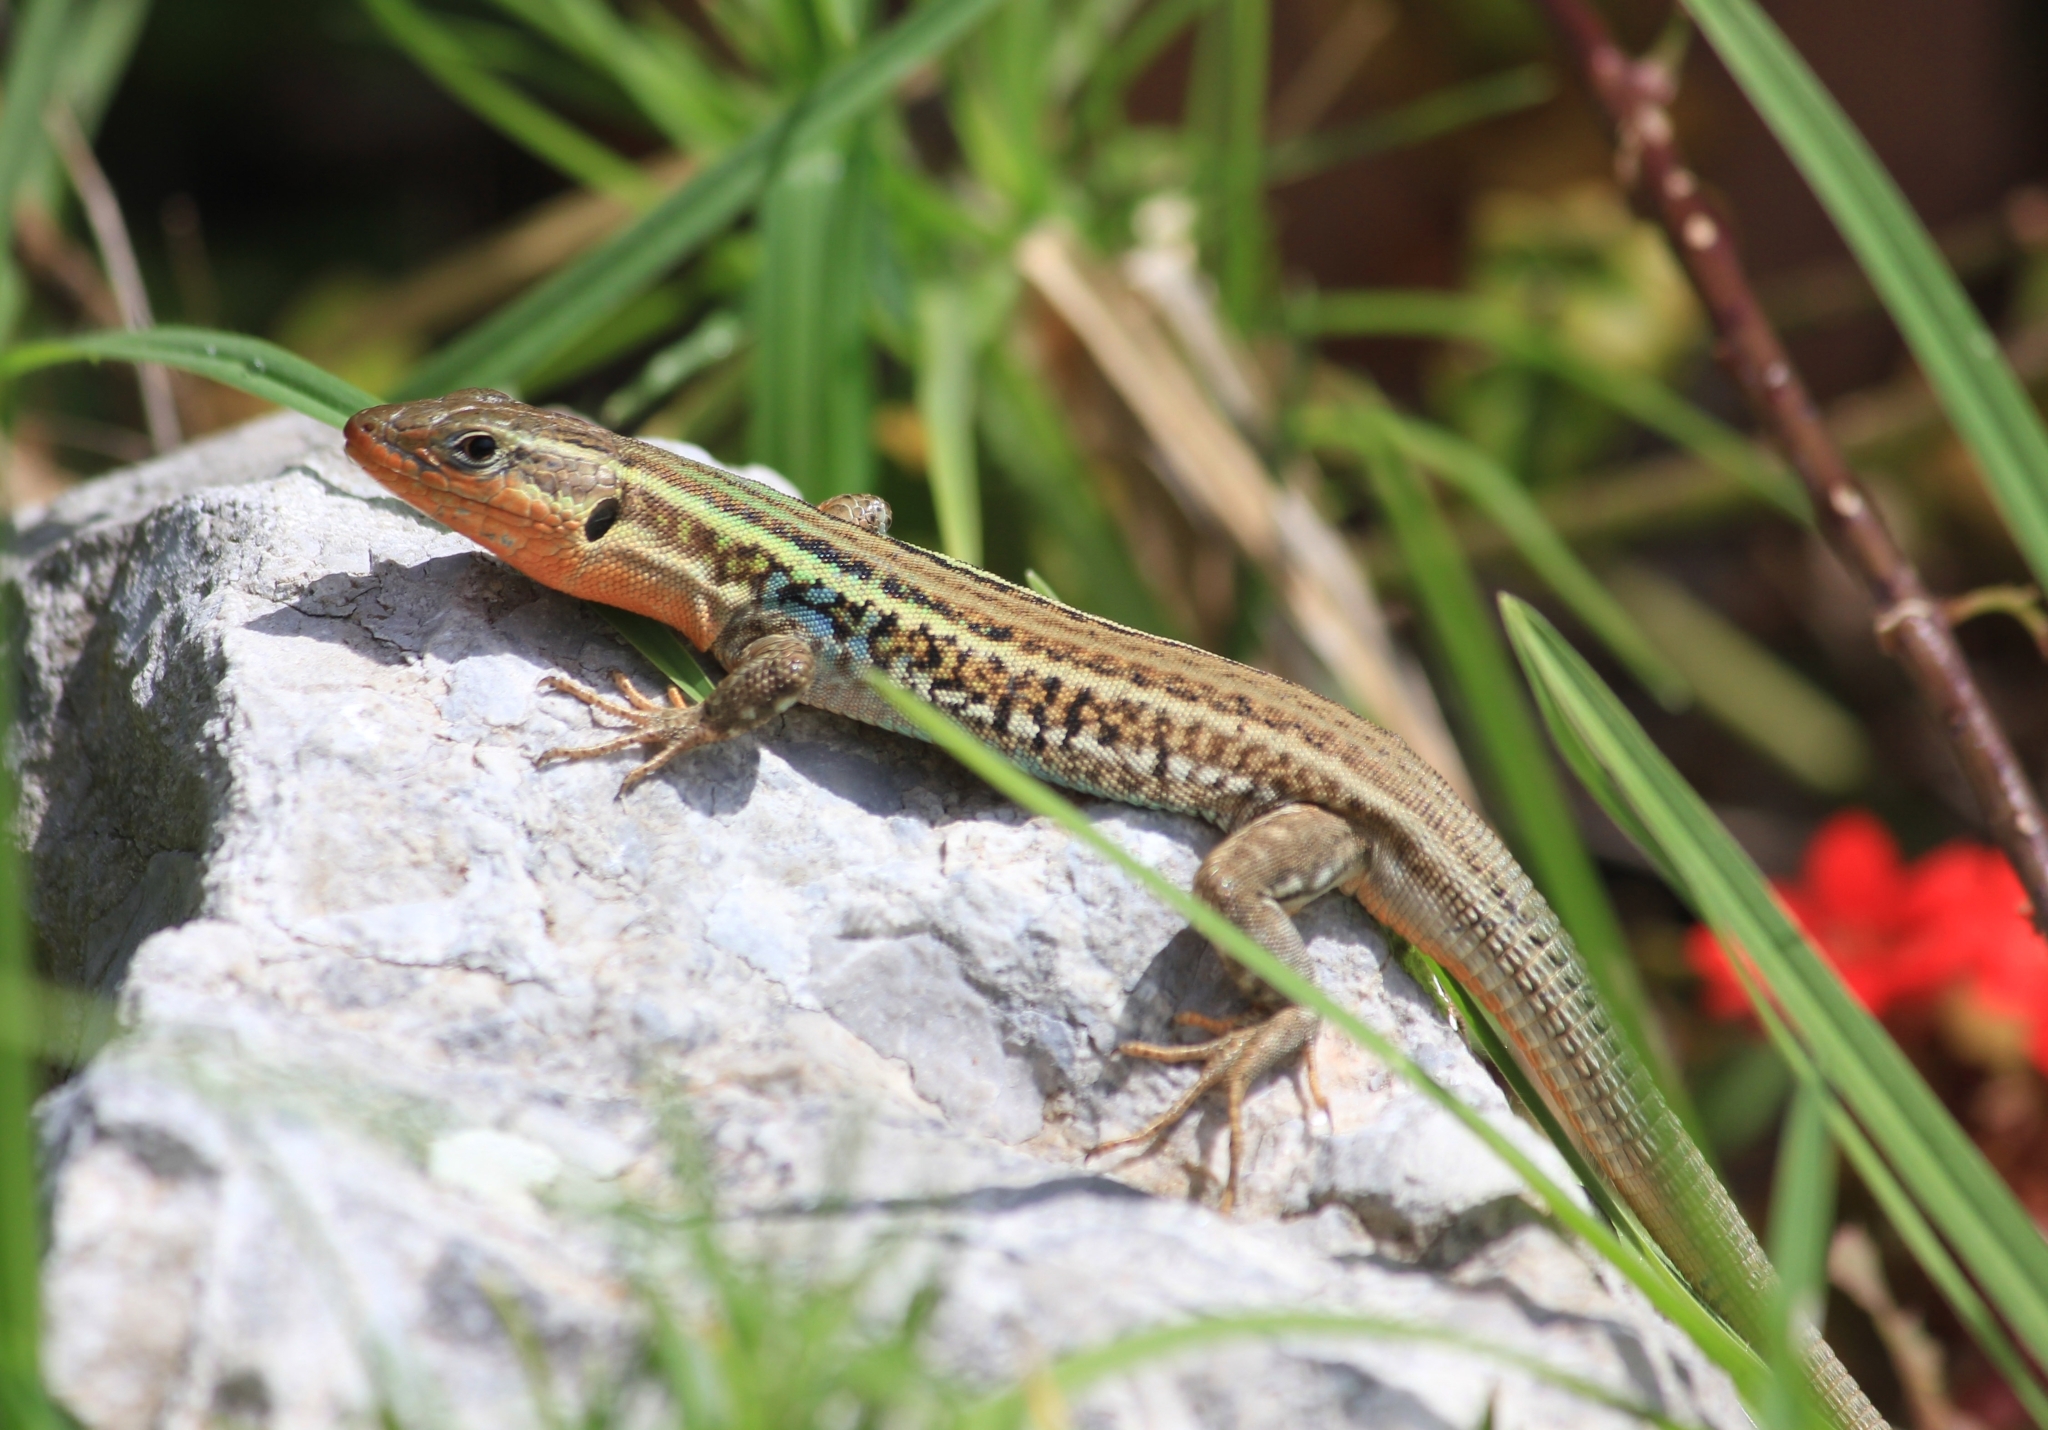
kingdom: Animalia
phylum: Chordata
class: Squamata
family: Lacertidae
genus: Podarcis
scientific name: Podarcis peloponnesiacus
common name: Peloponnese wall lizard
